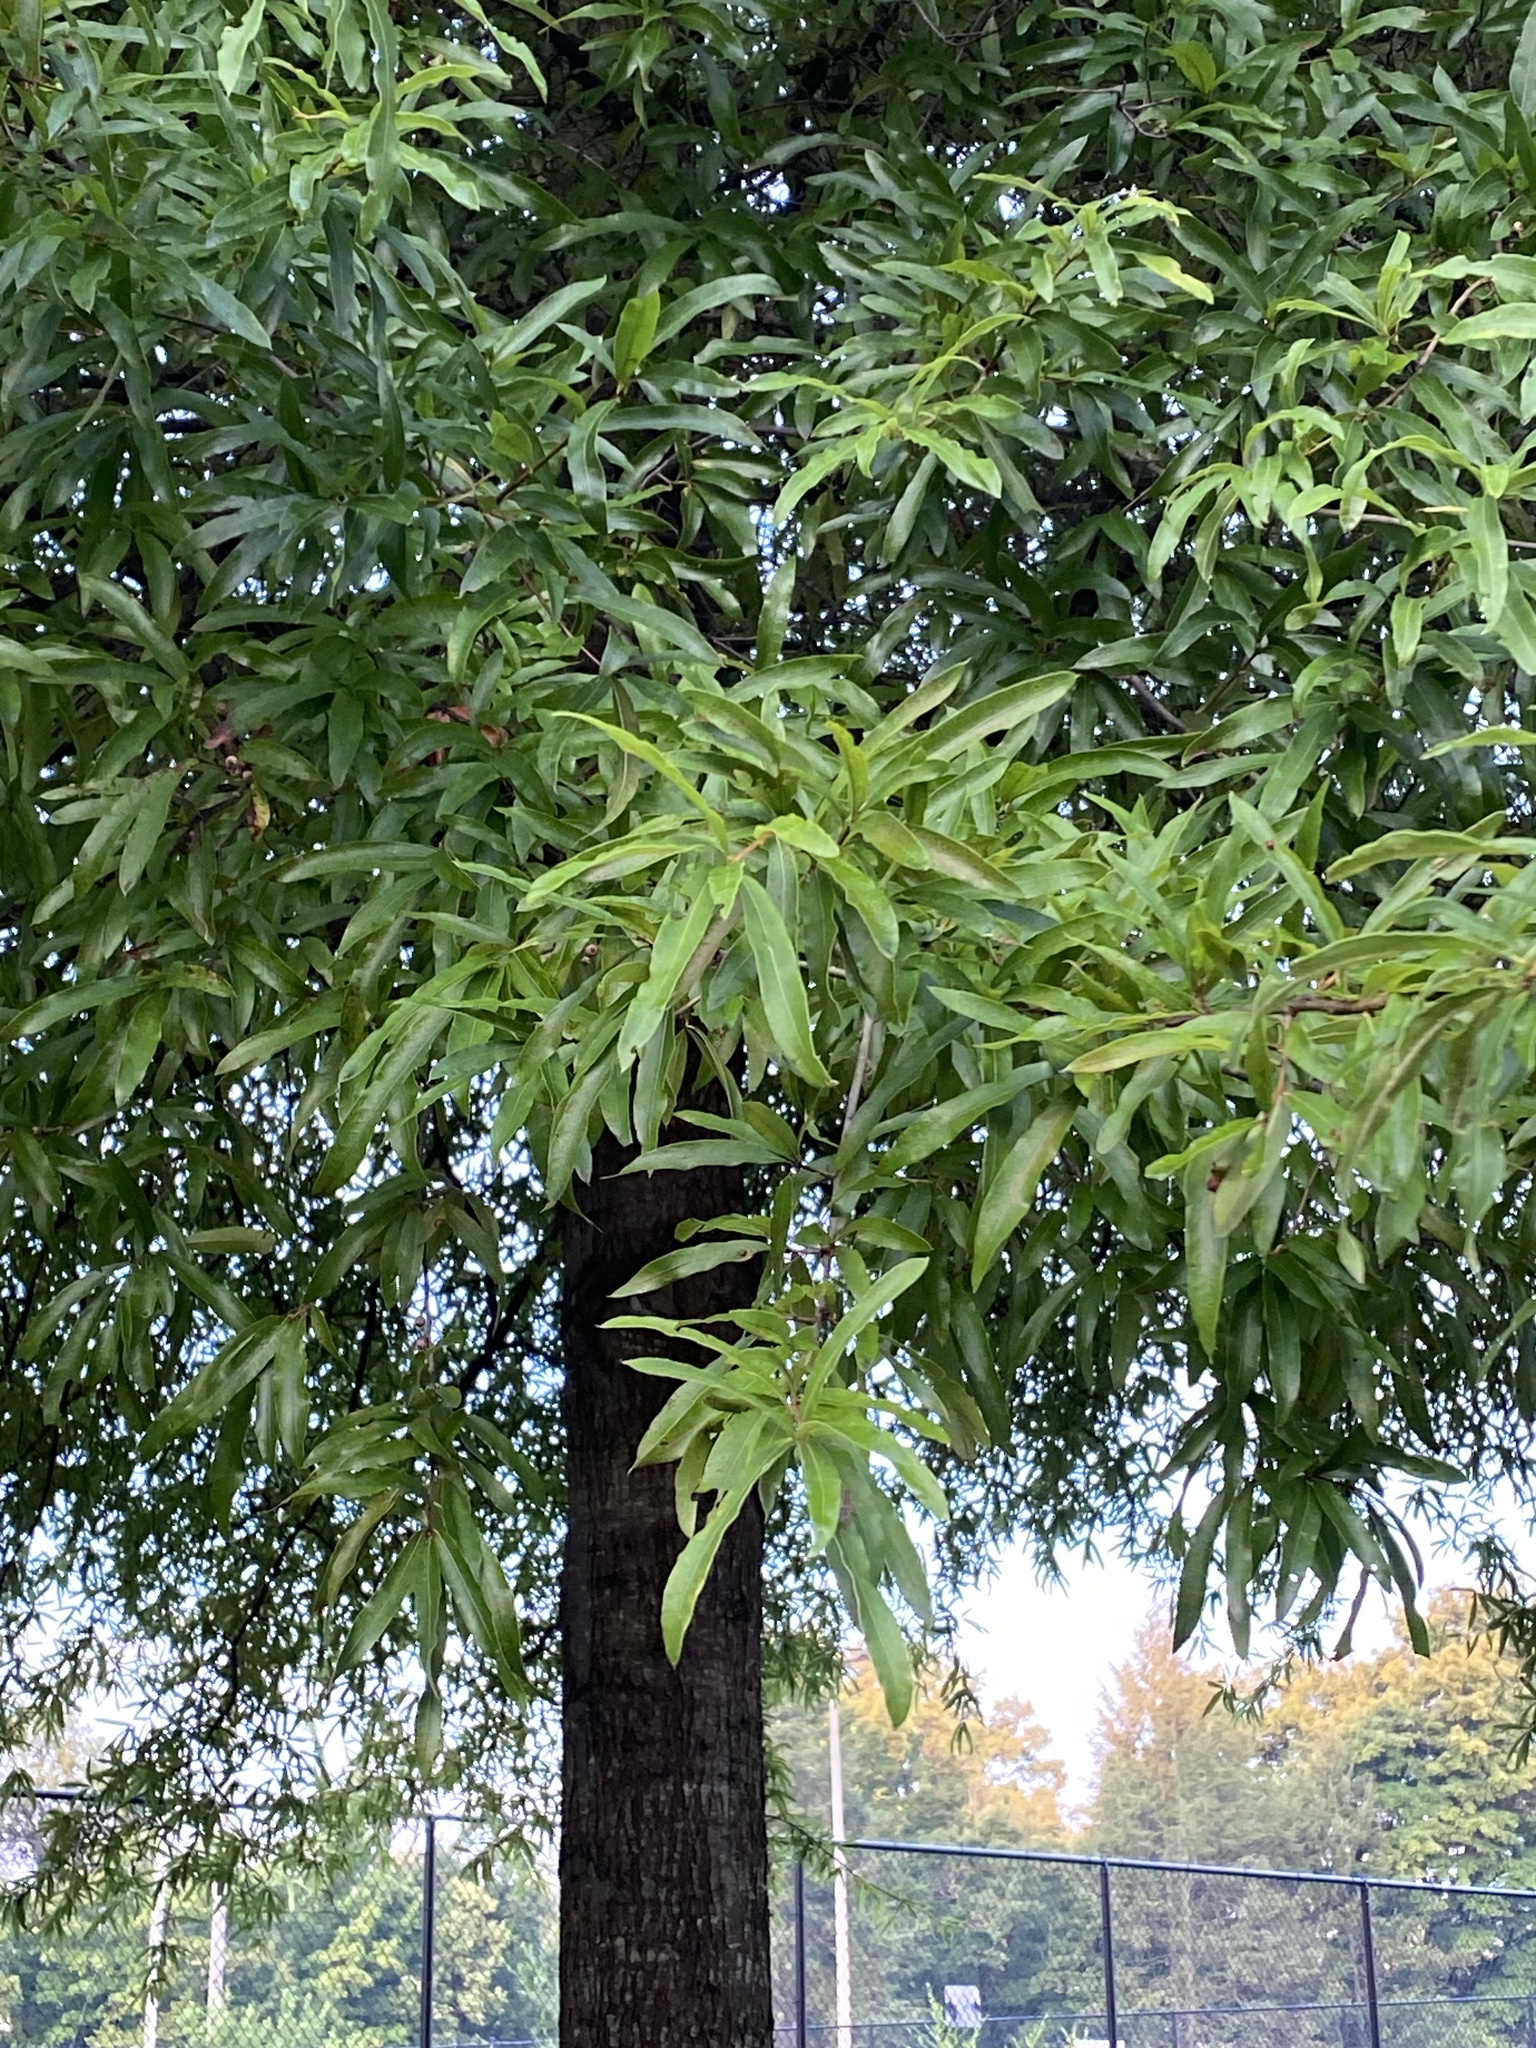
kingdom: Plantae
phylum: Tracheophyta
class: Magnoliopsida
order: Fagales
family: Fagaceae
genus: Quercus
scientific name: Quercus phellos
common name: Willow oak
